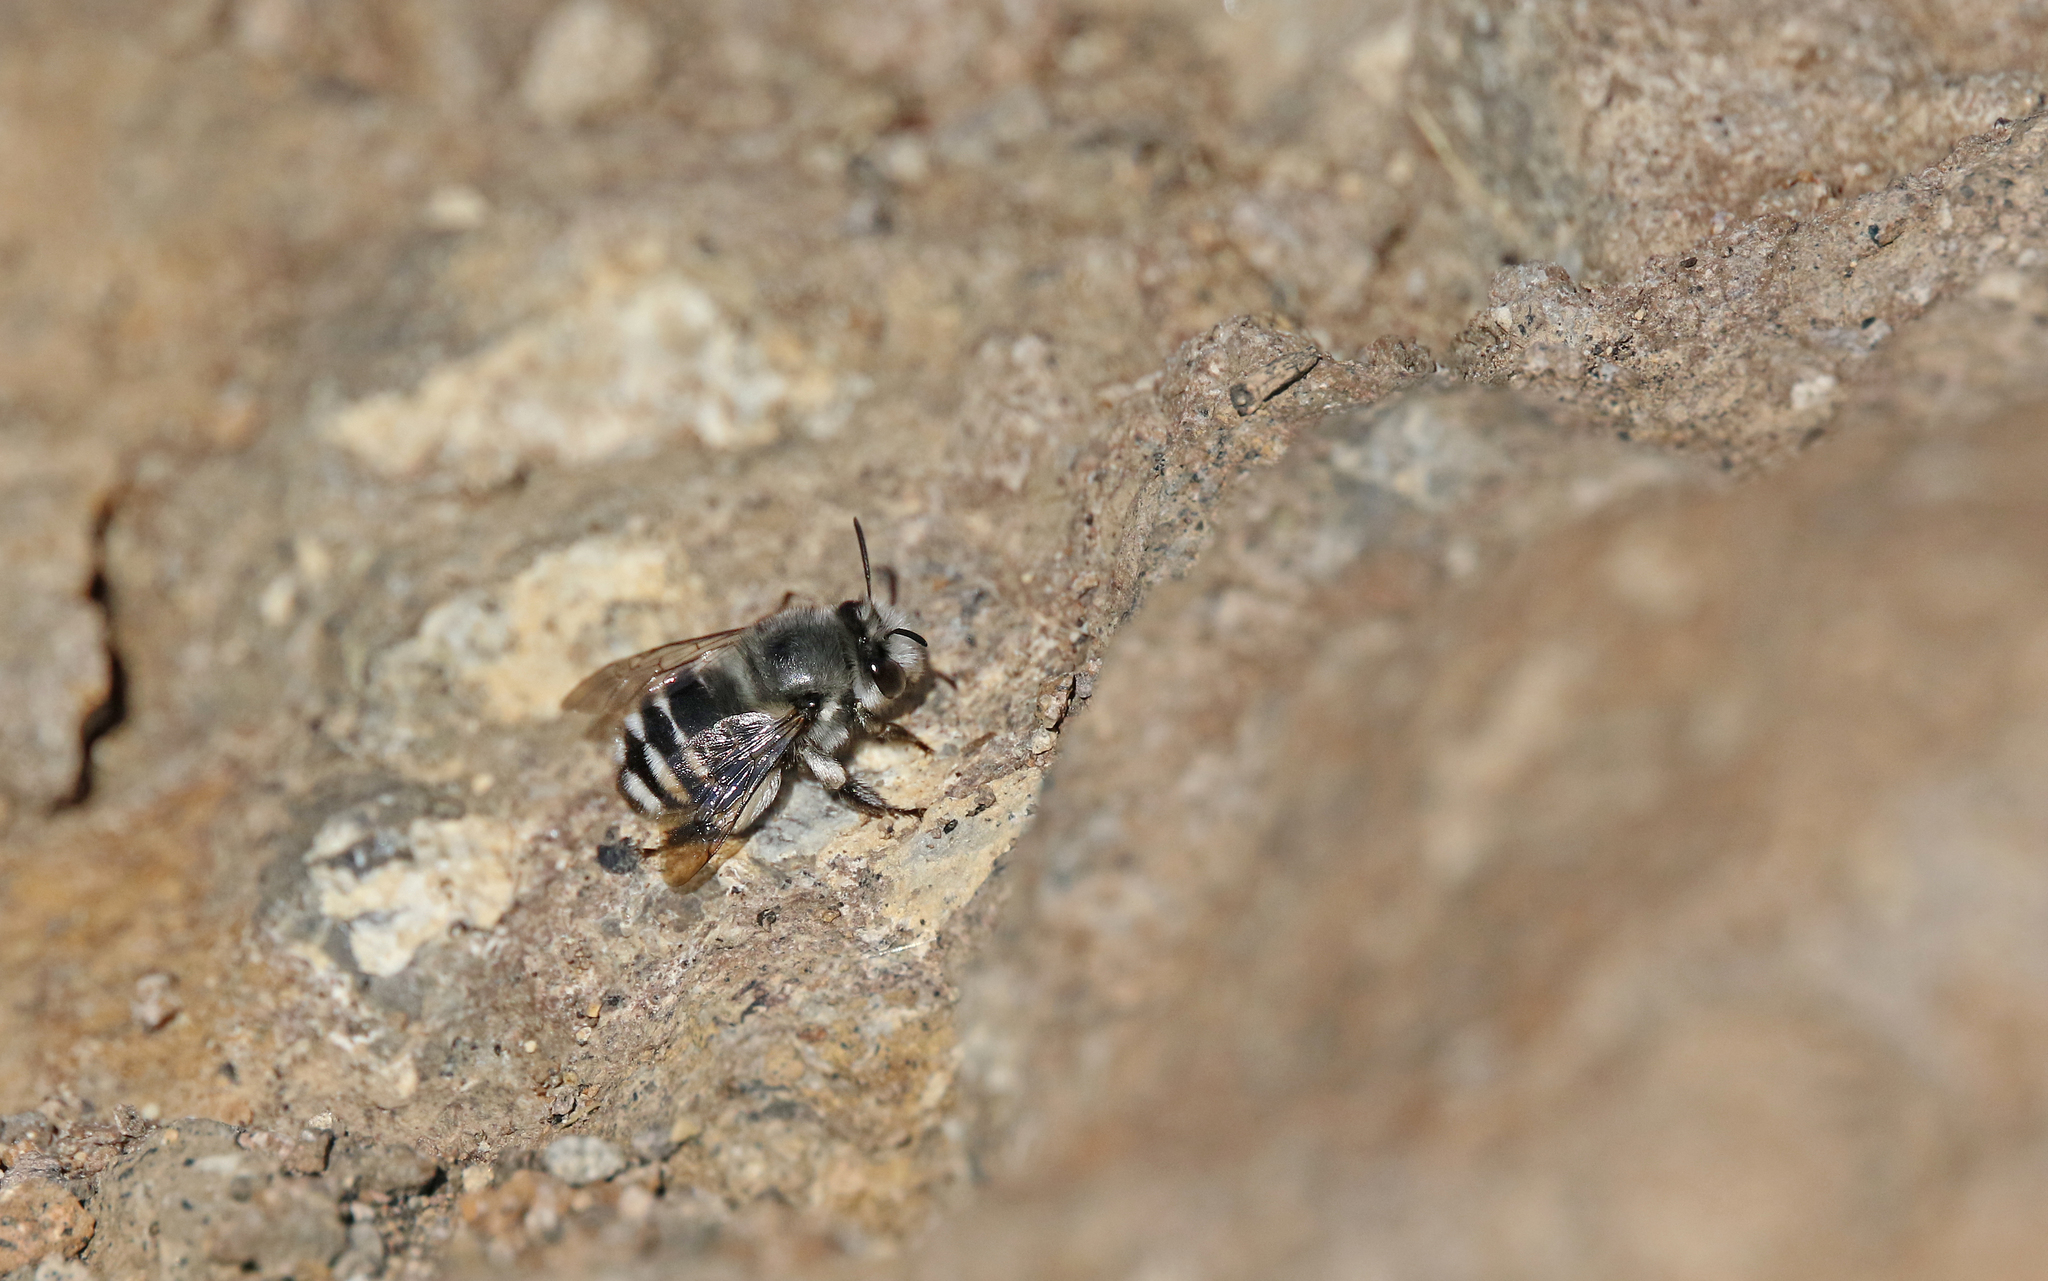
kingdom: Animalia
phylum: Arthropoda
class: Insecta
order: Hymenoptera
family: Apidae
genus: Anthophora
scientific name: Anthophora alluaudi
